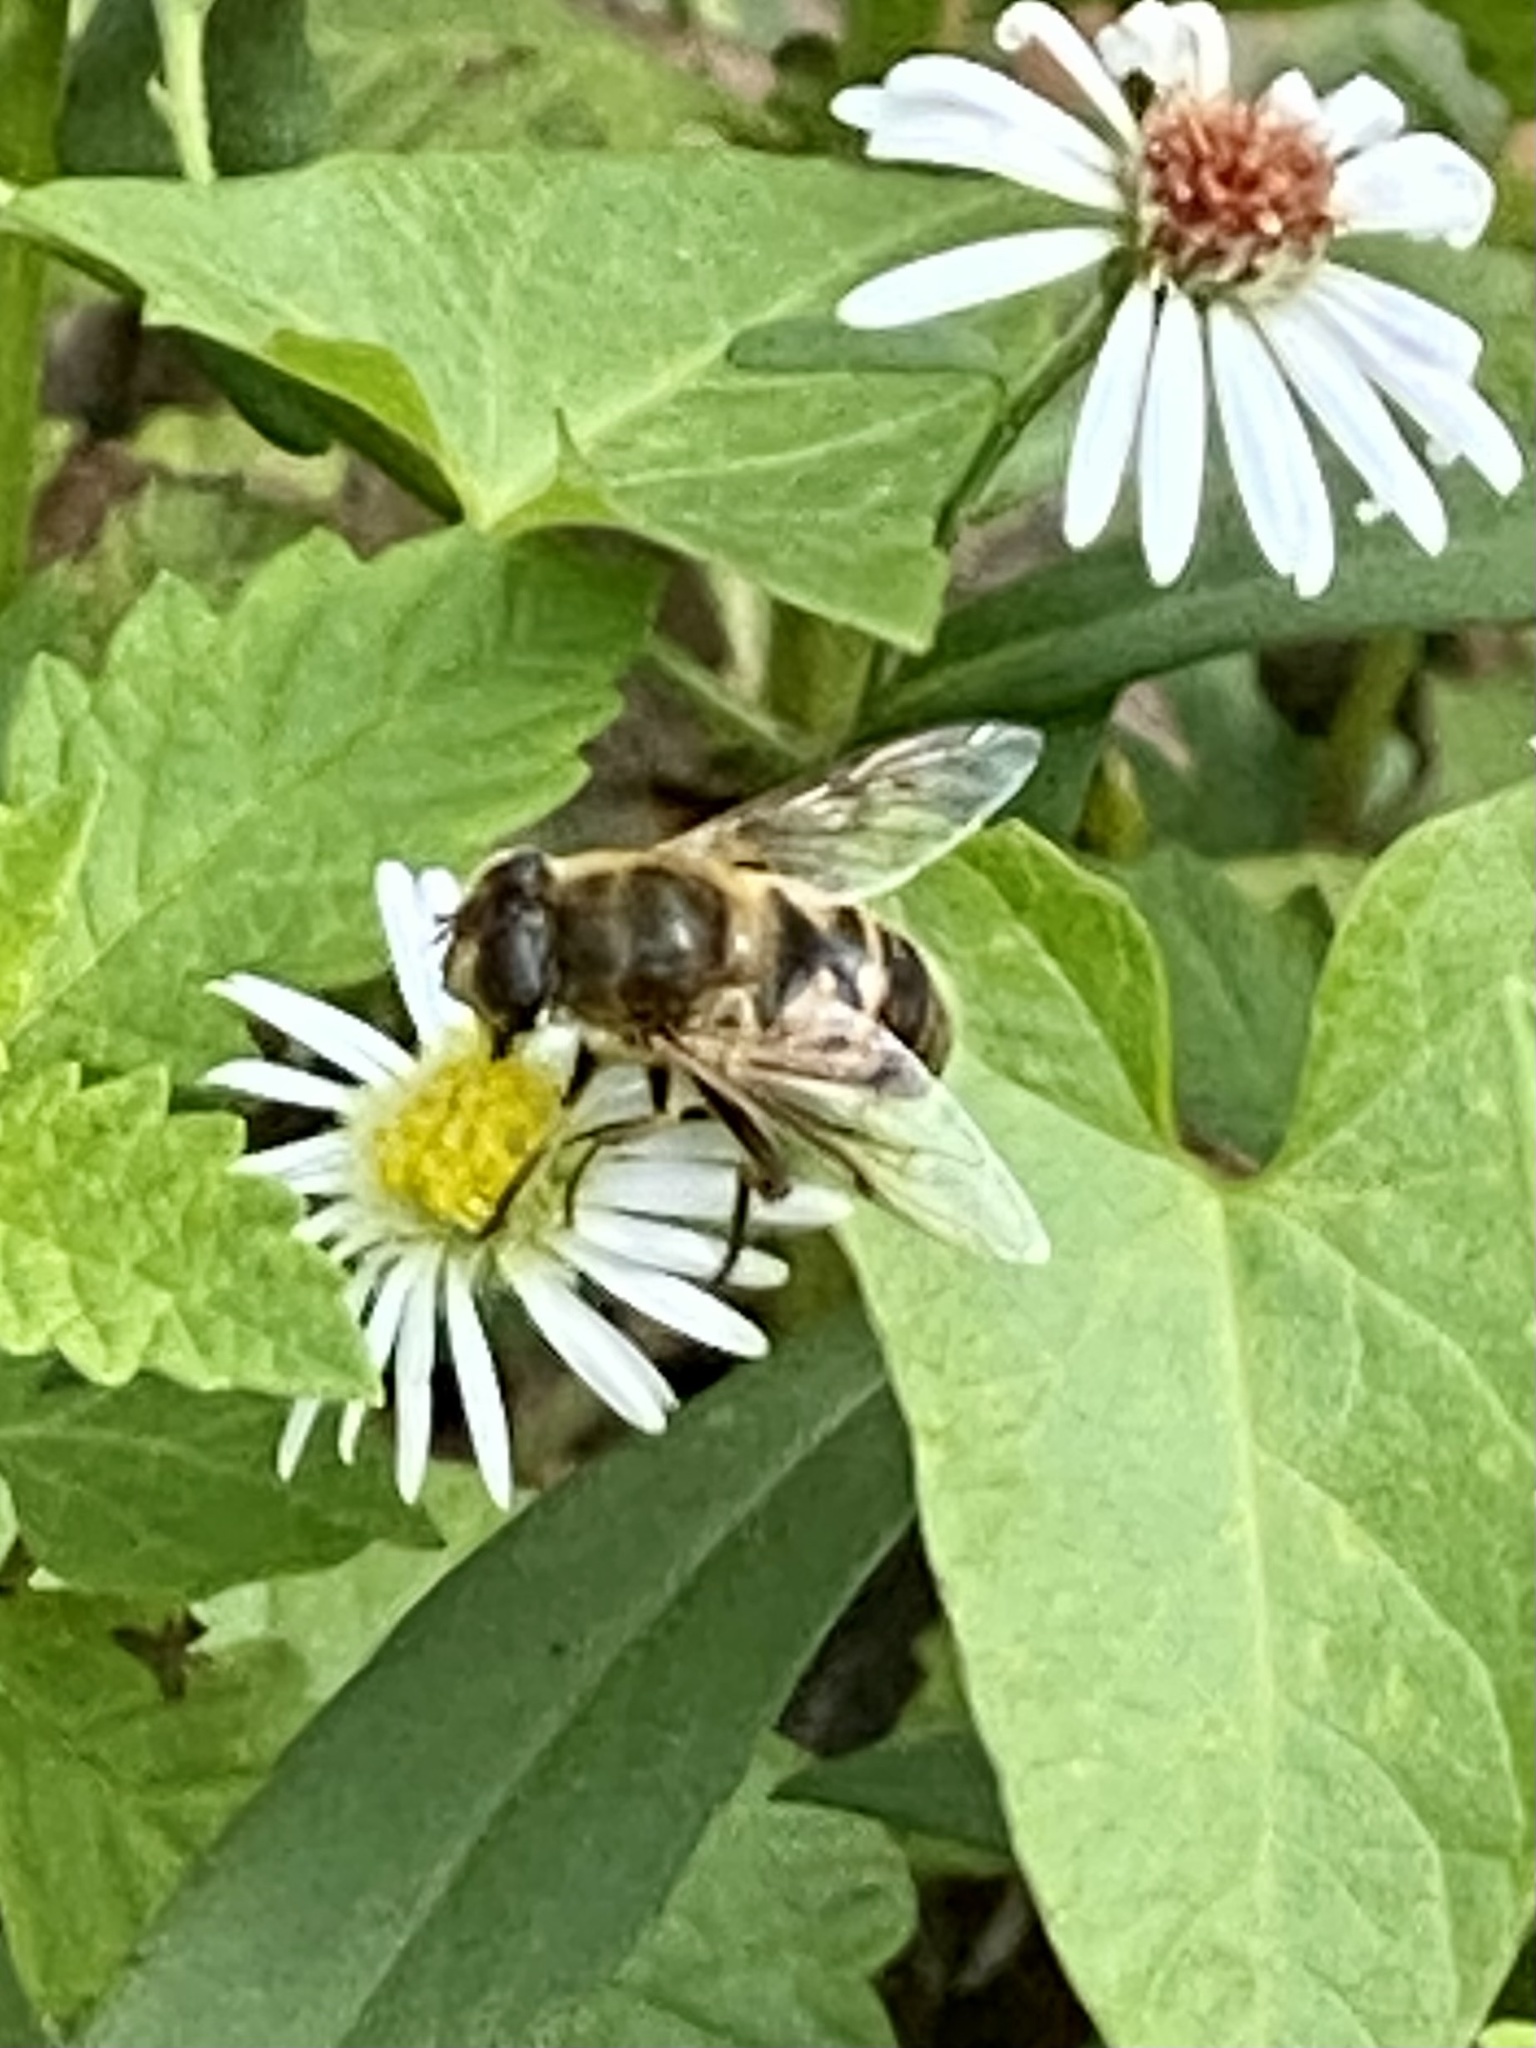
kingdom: Animalia
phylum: Arthropoda
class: Insecta
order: Diptera
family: Syrphidae
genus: Eristalis
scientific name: Eristalis tenax
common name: Drone fly
